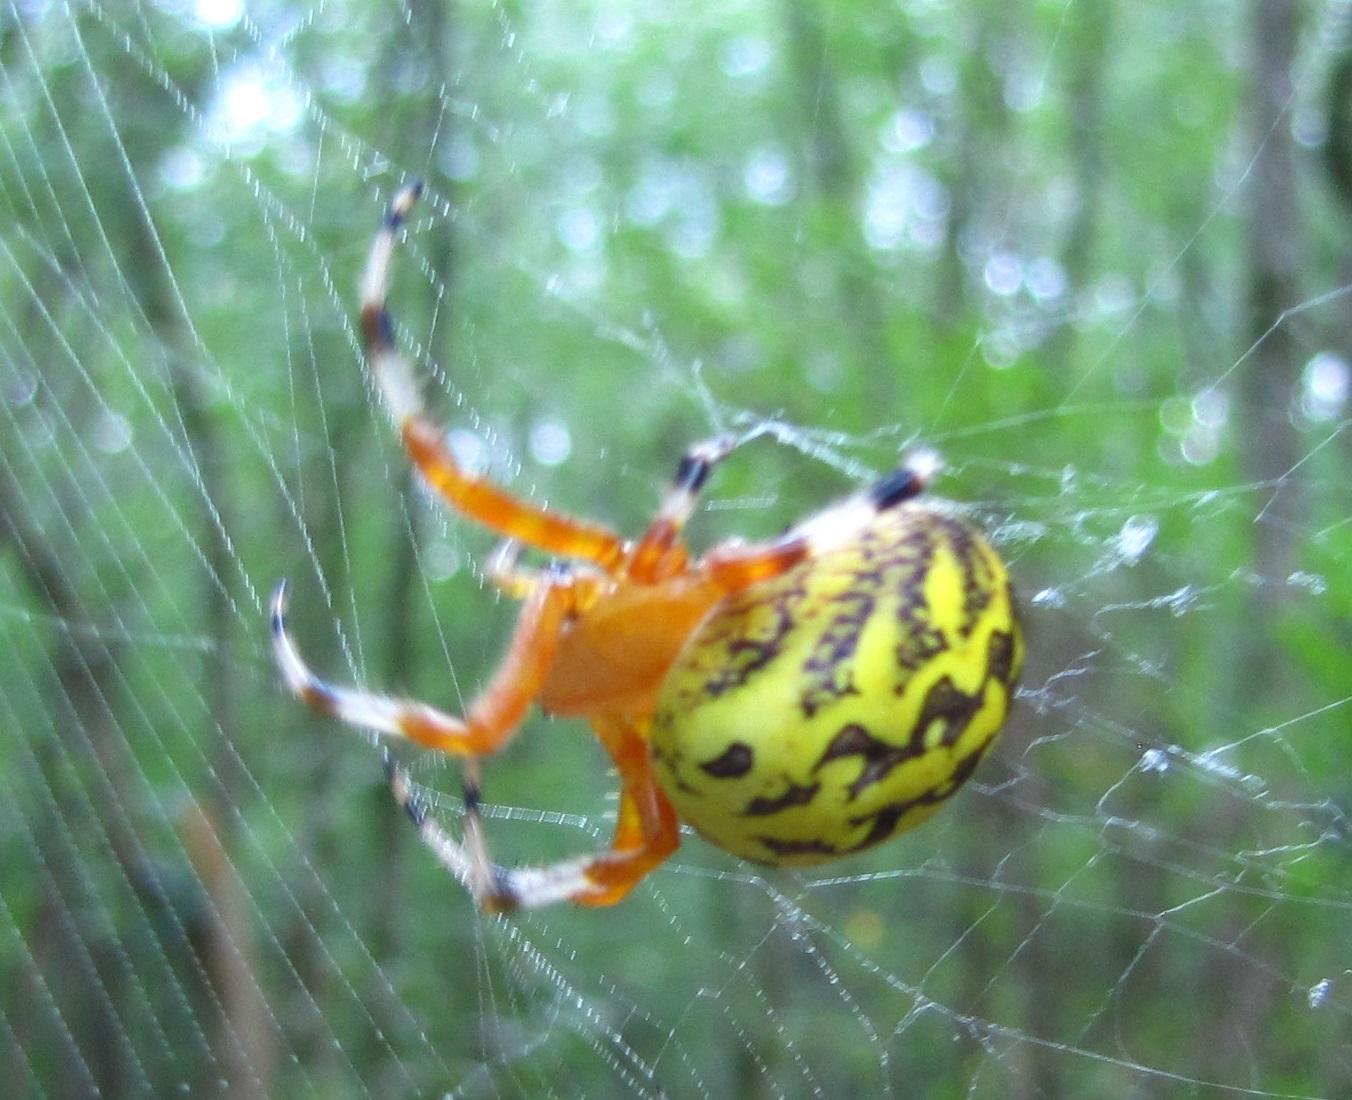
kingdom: Animalia
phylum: Arthropoda
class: Arachnida
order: Araneae
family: Araneidae
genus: Araneus
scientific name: Araneus marmoreus
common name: Marbled orbweaver
